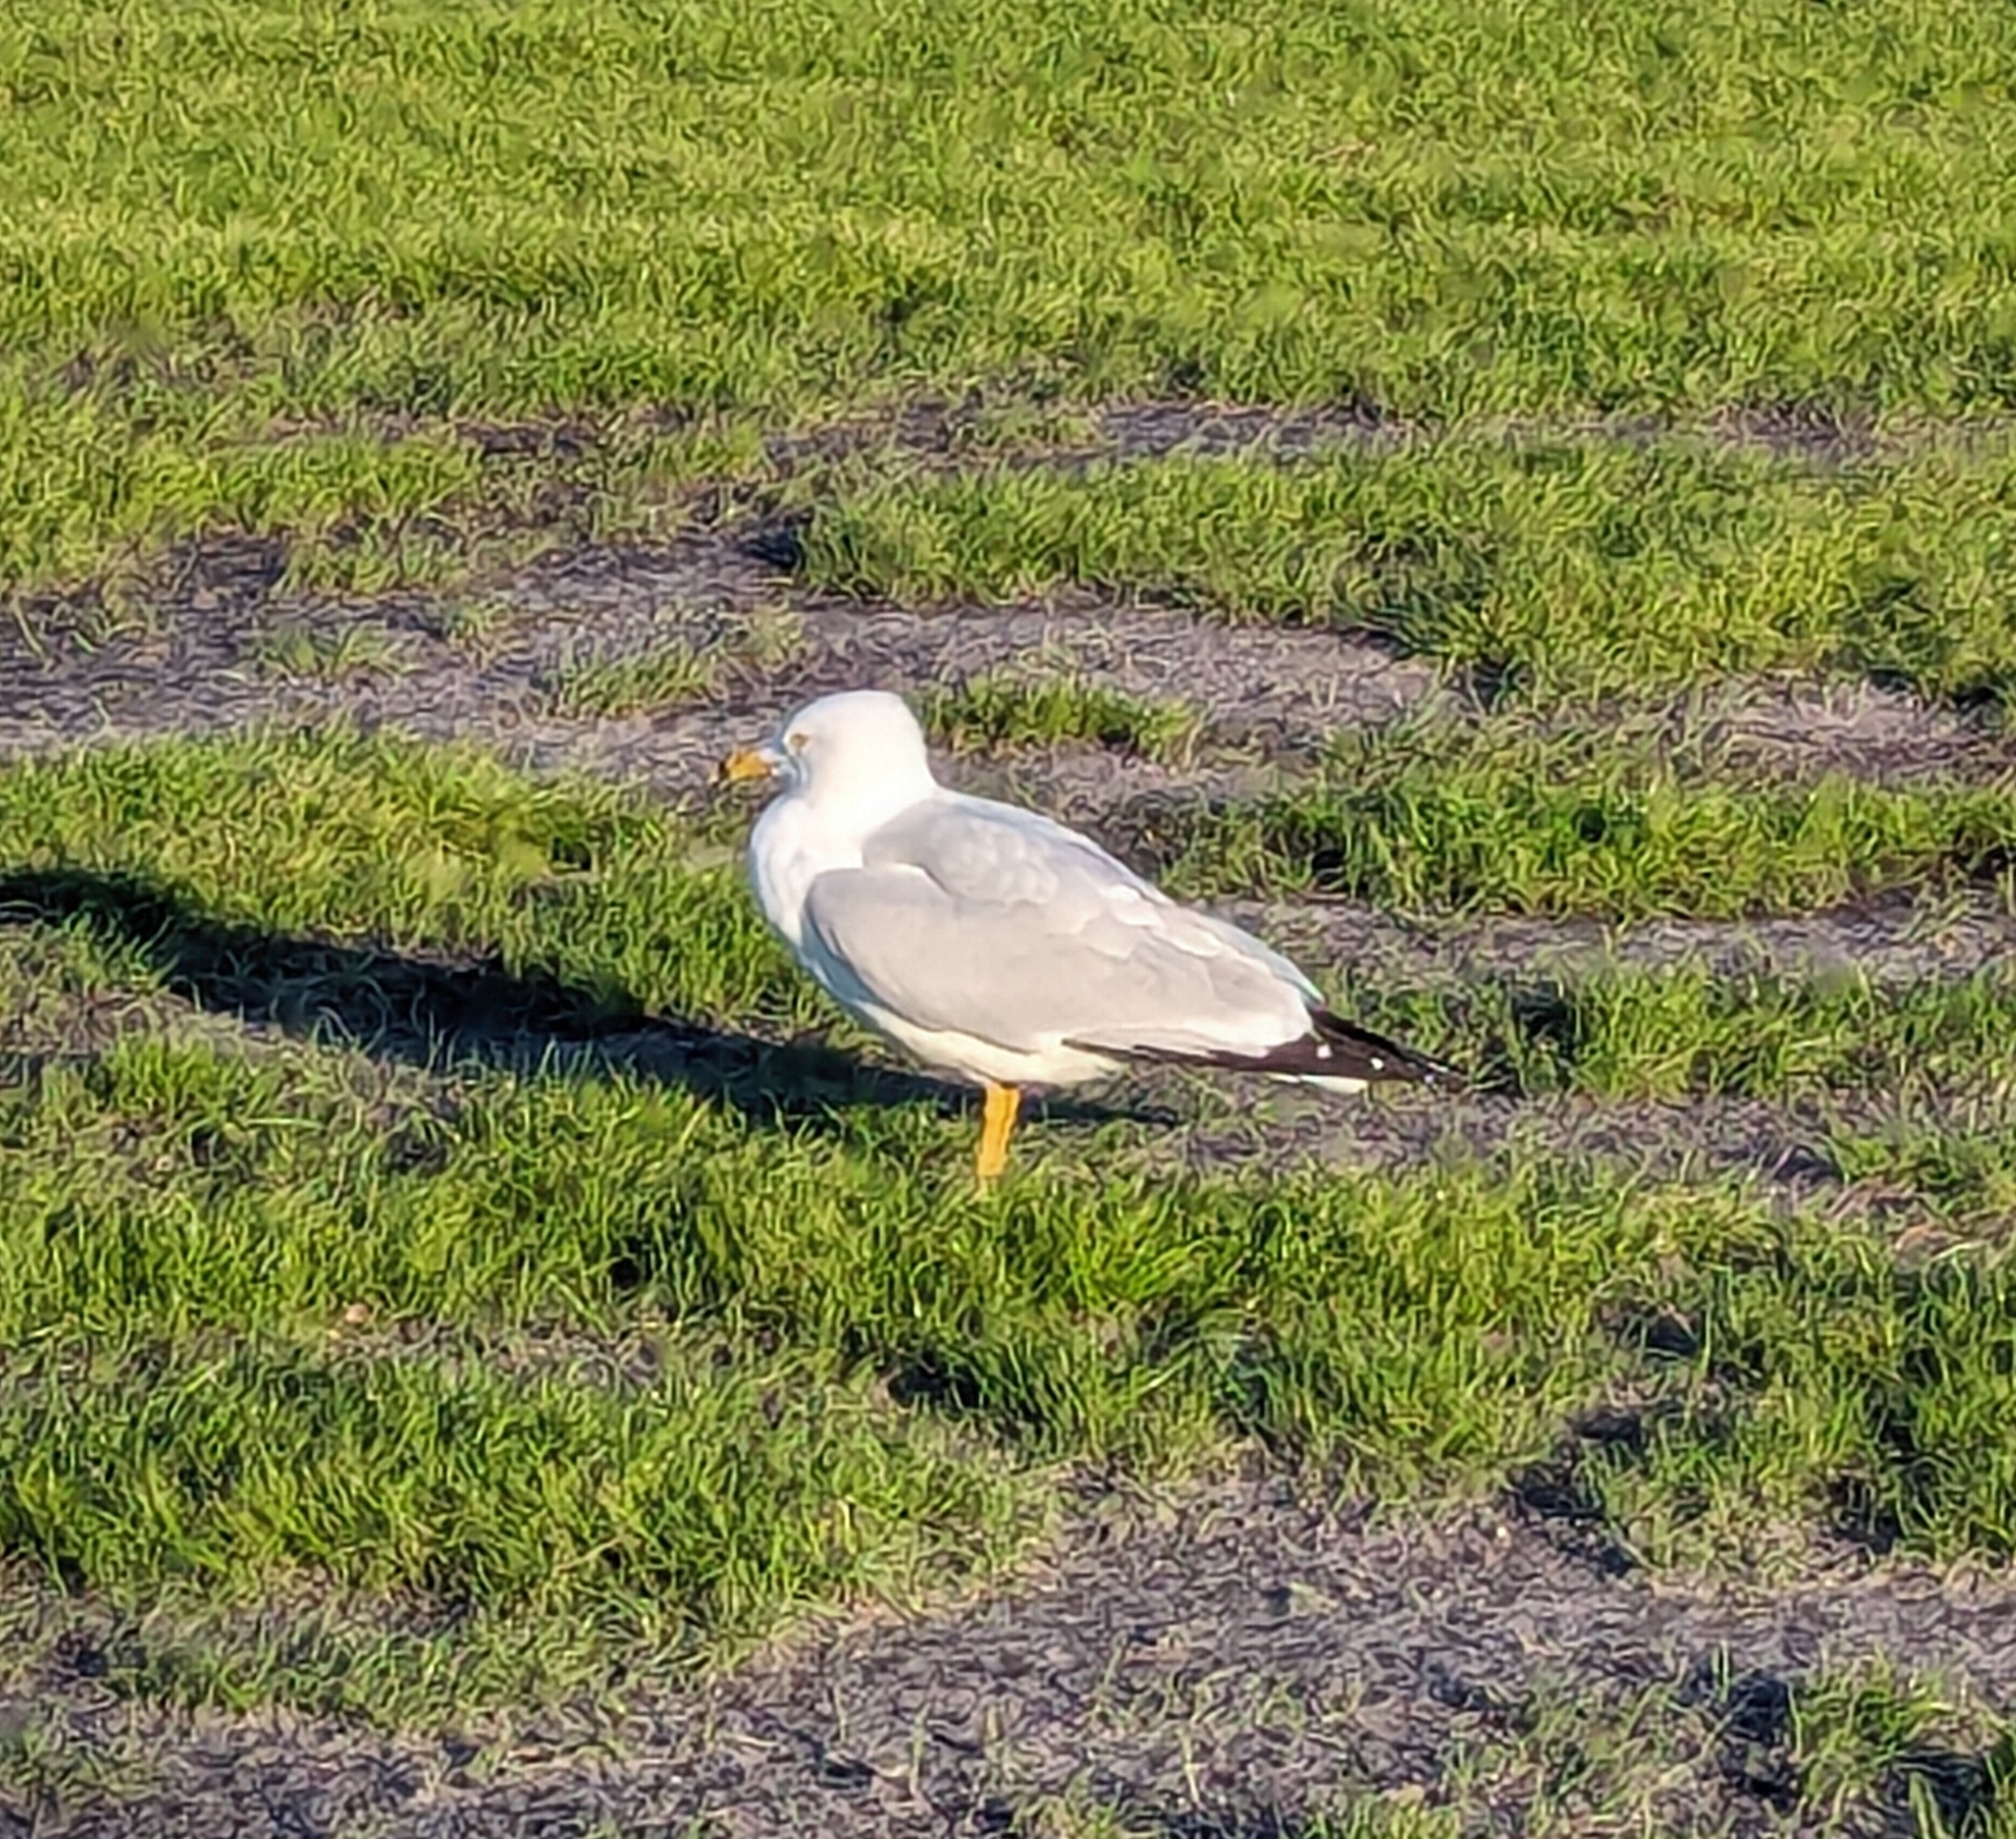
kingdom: Animalia
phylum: Chordata
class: Aves
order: Charadriiformes
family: Laridae
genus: Larus
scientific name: Larus delawarensis
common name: Ring-billed gull
